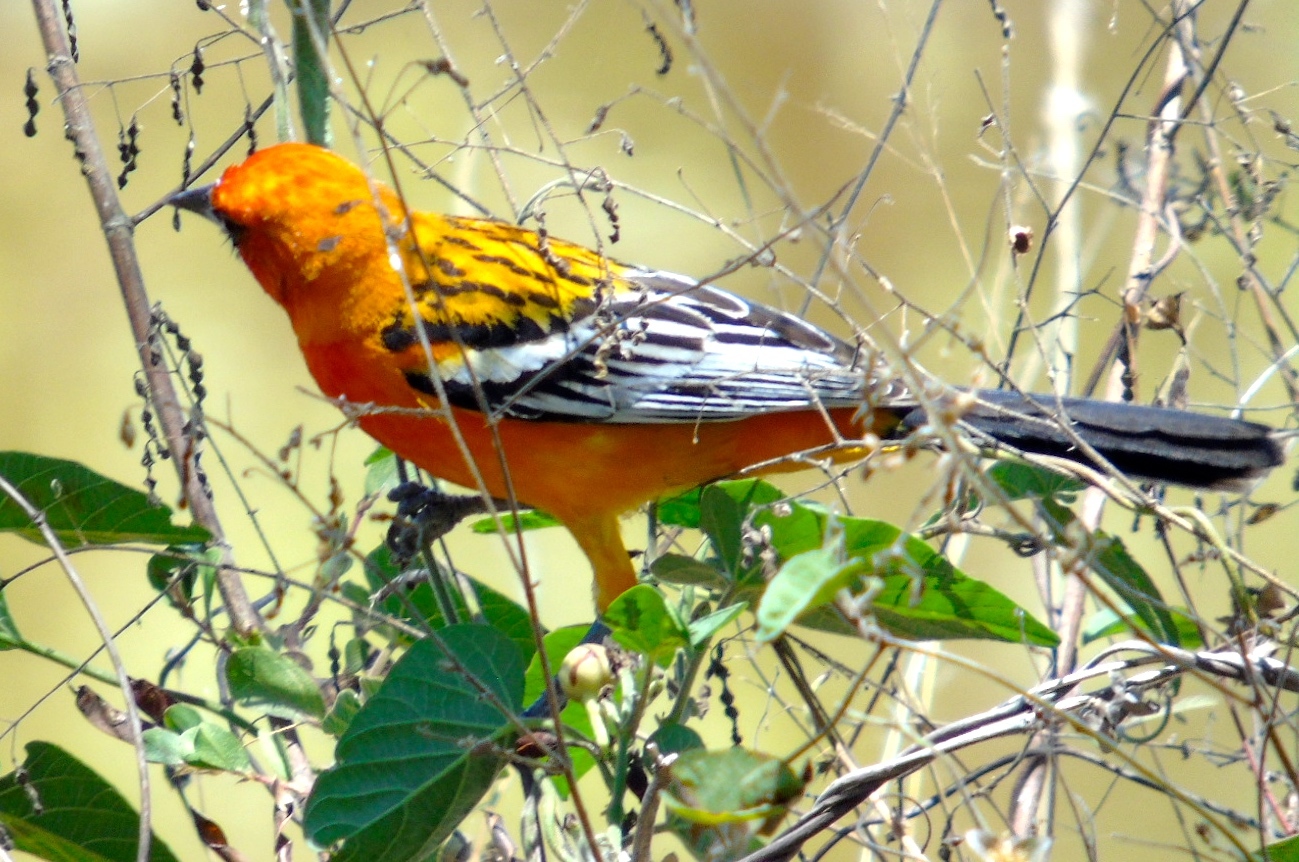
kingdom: Animalia
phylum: Chordata
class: Aves
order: Passeriformes
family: Icteridae
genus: Icterus
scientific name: Icterus pustulatus
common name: Streak-backed oriole
